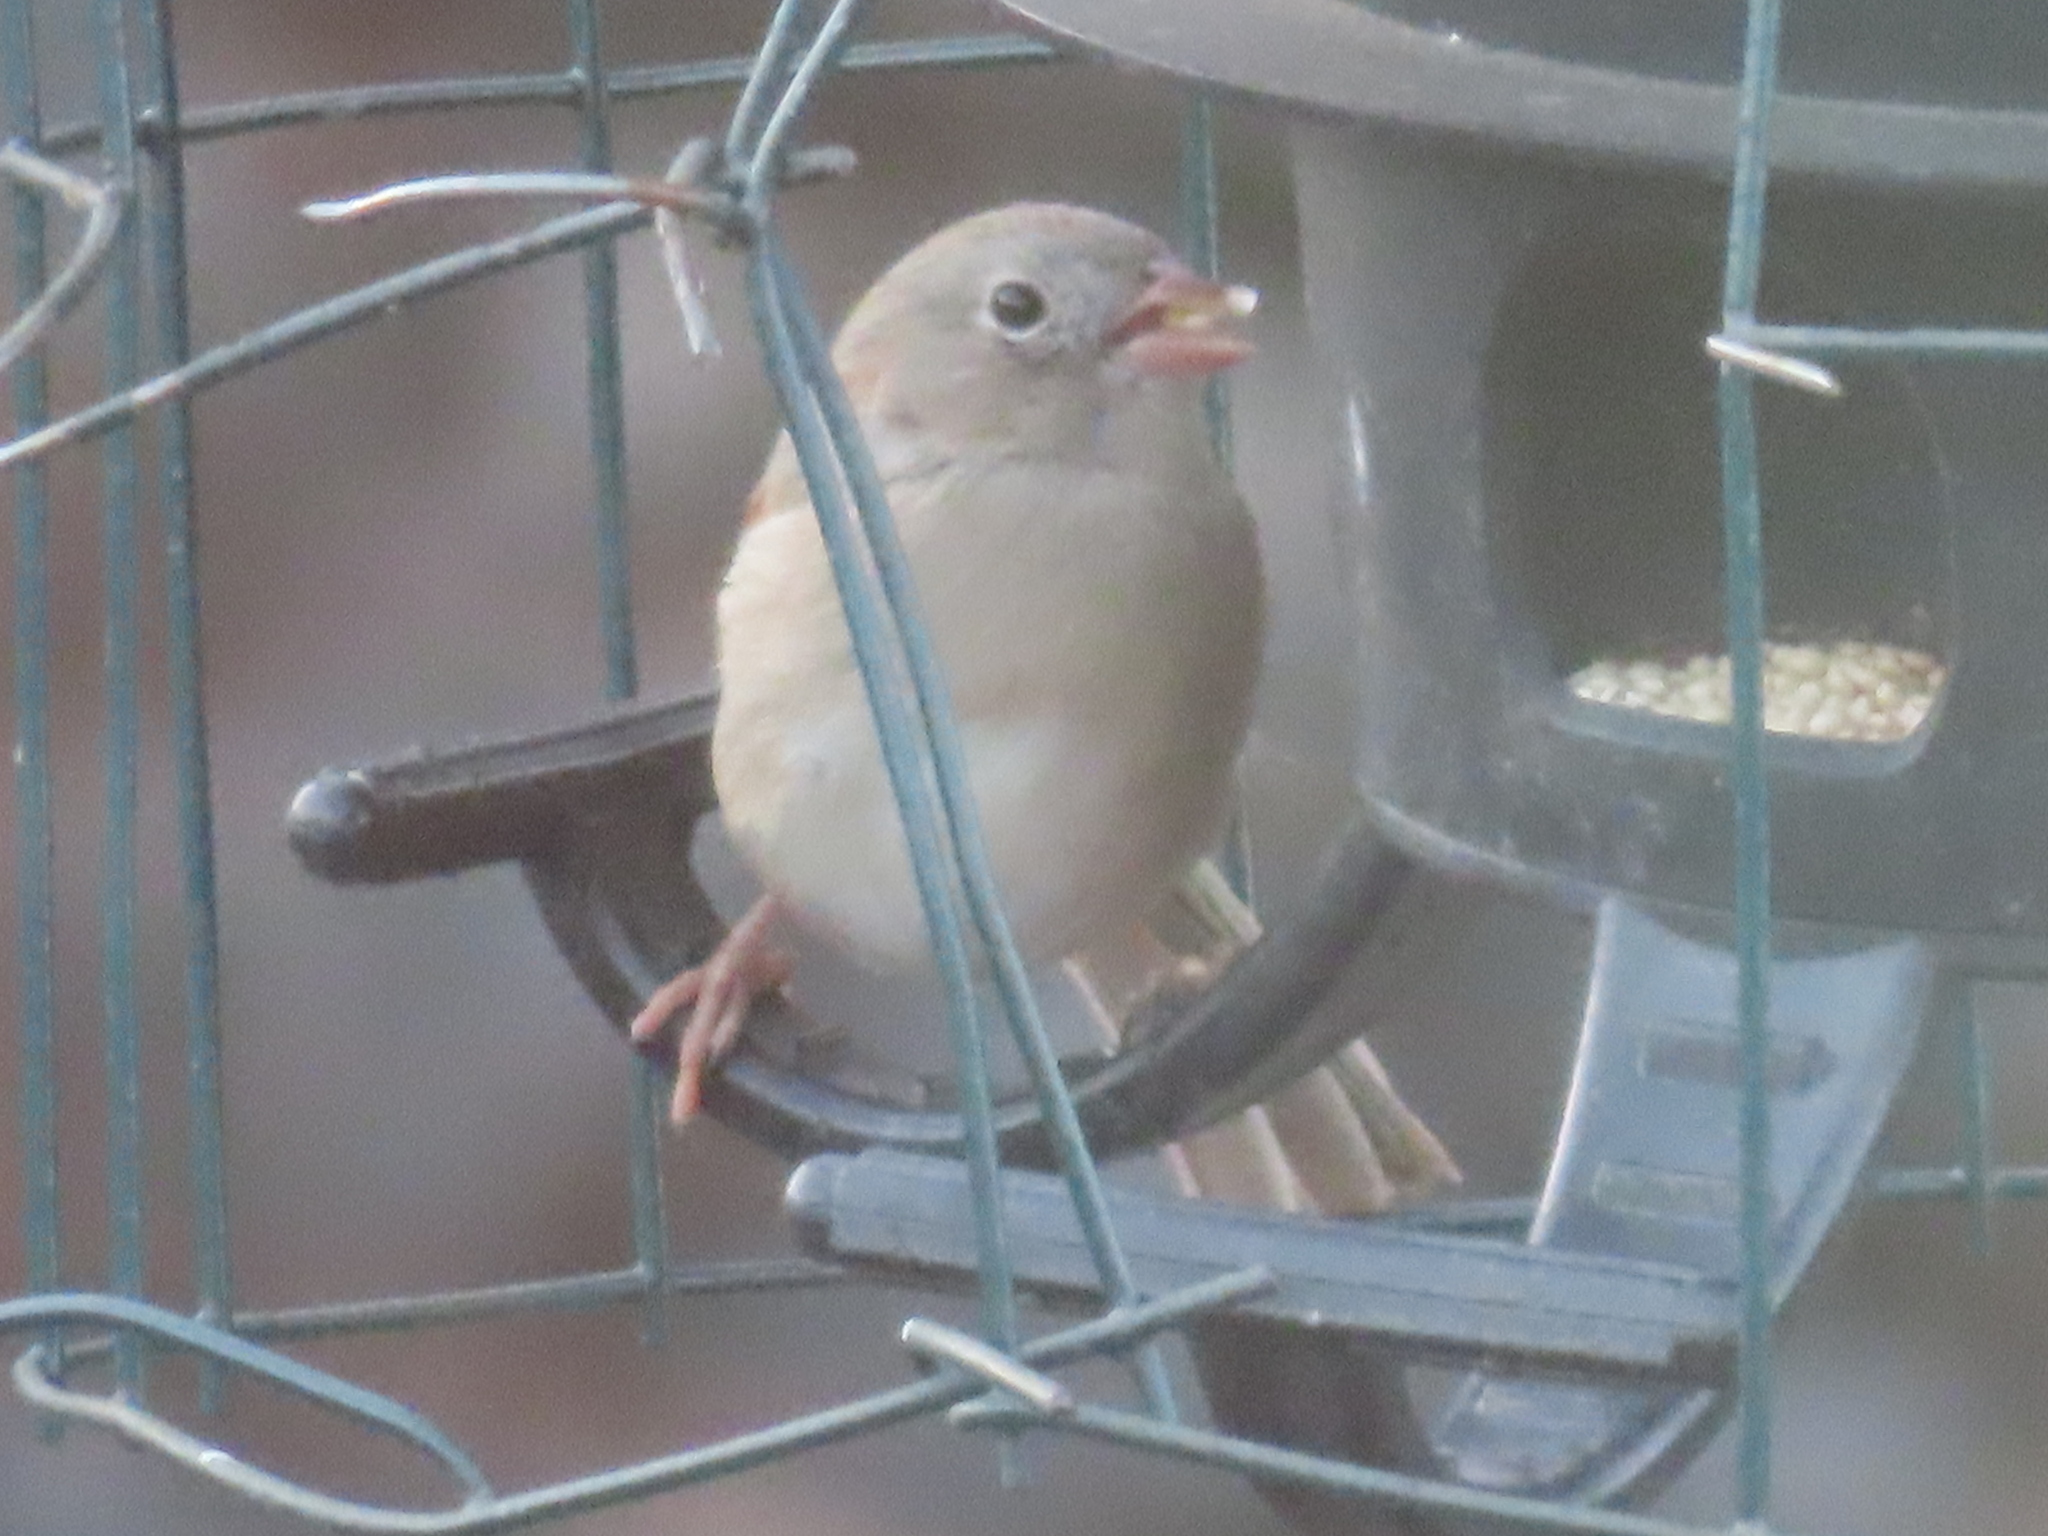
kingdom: Animalia
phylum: Chordata
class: Aves
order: Passeriformes
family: Passerellidae
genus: Spizella
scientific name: Spizella pusilla
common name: Field sparrow
